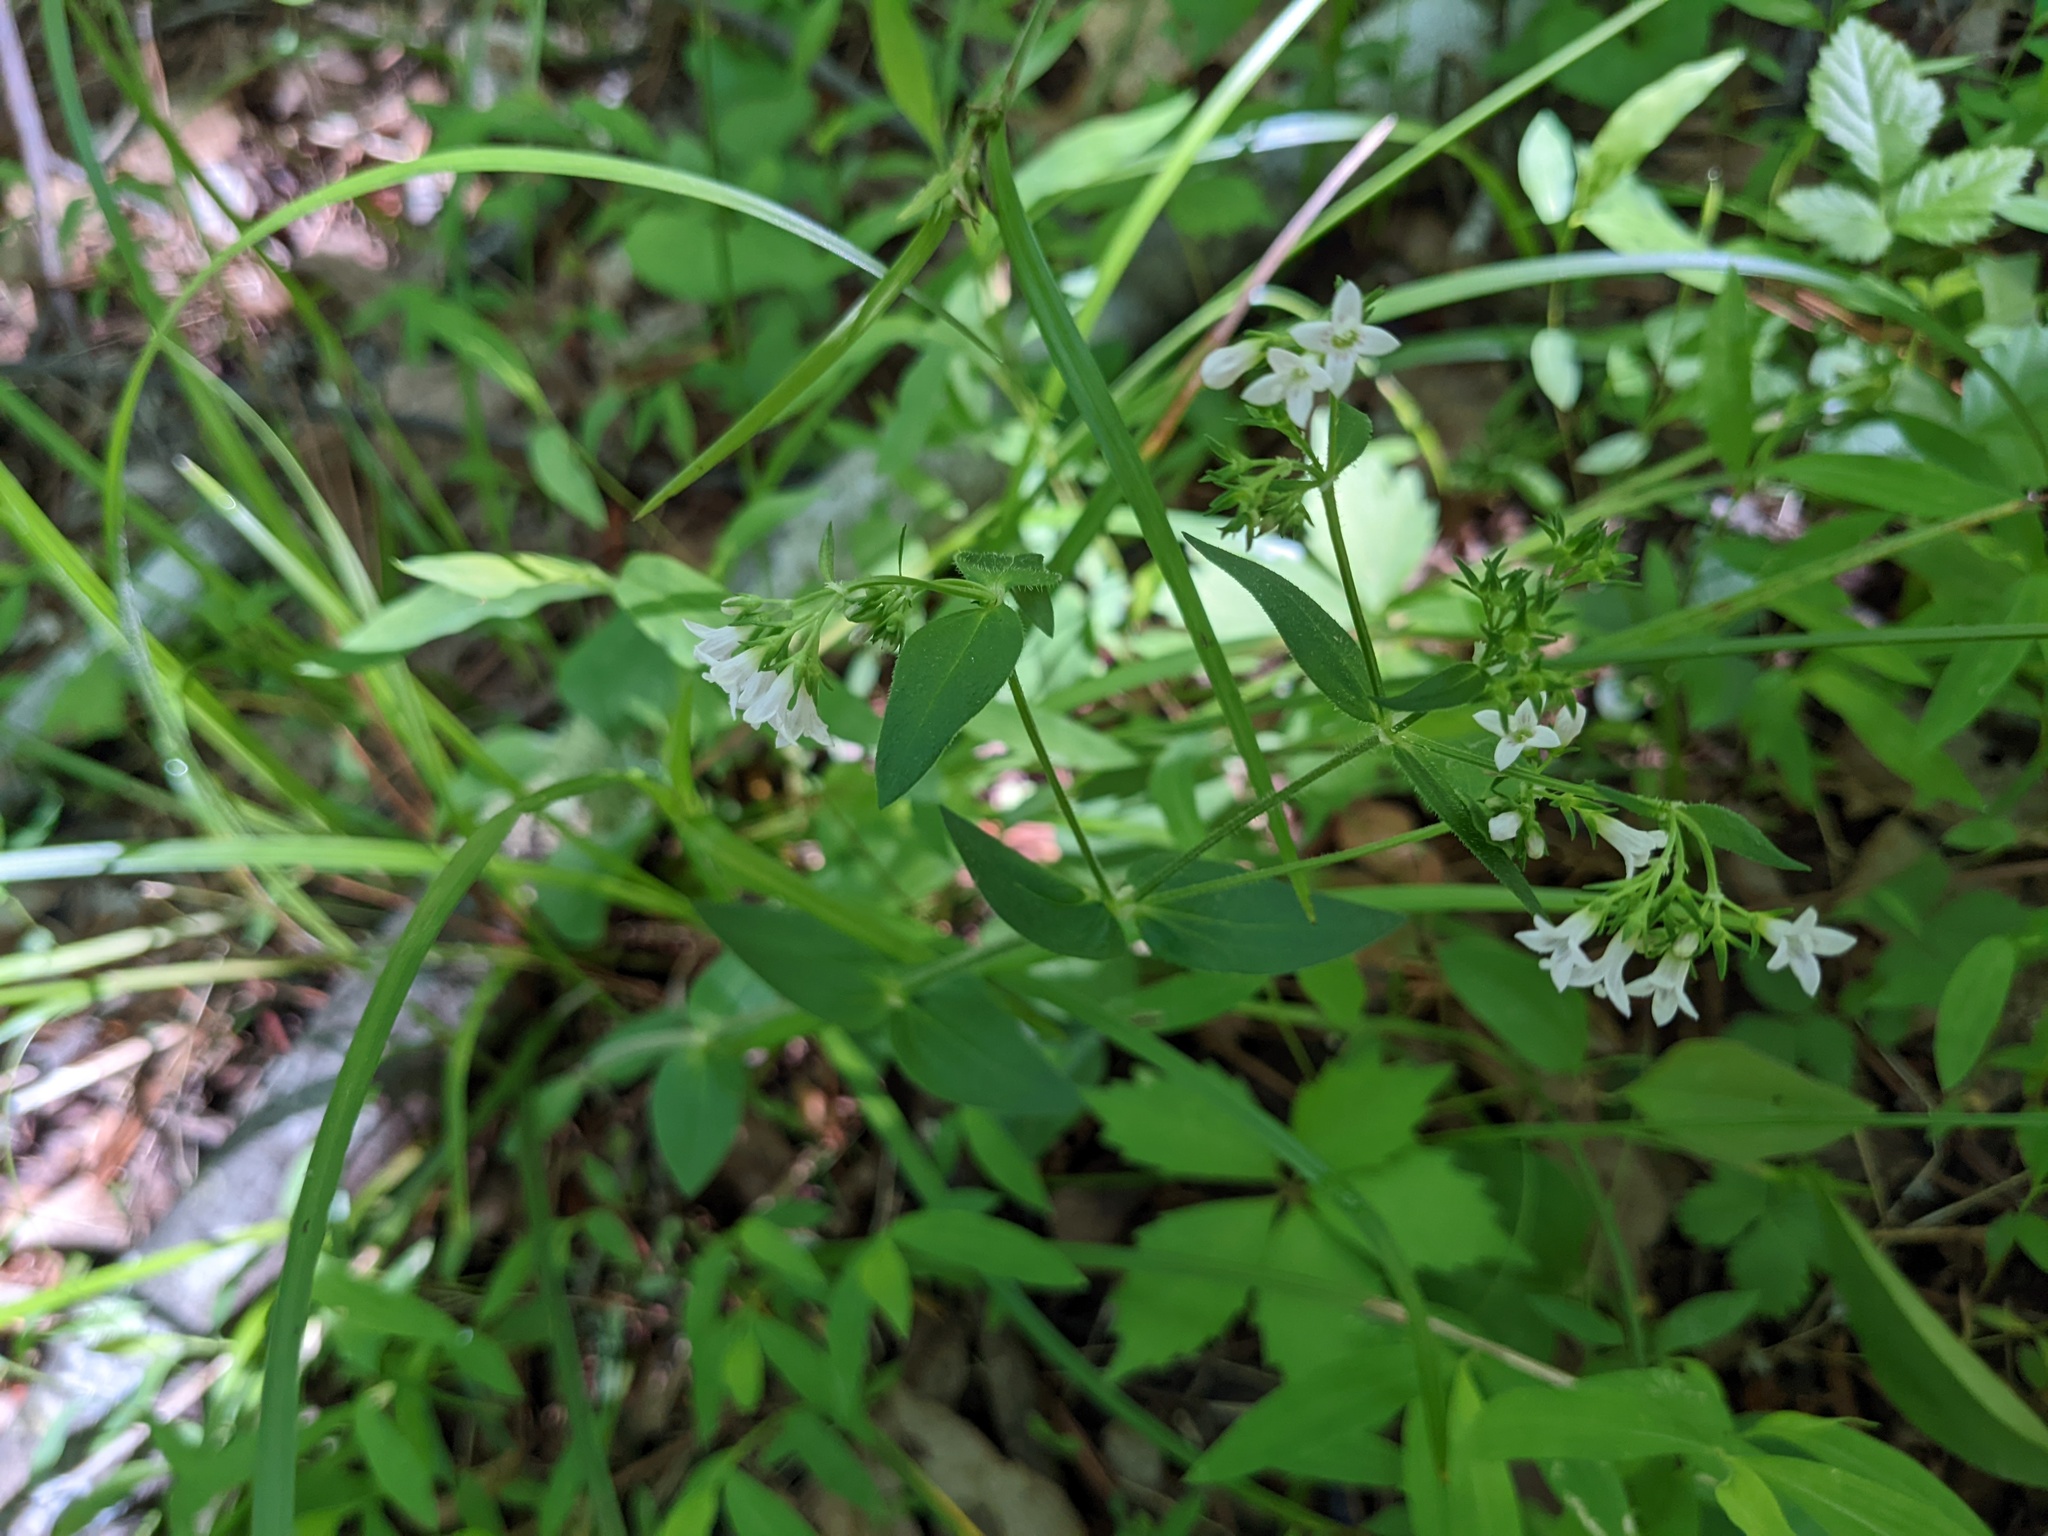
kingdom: Plantae
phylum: Tracheophyta
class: Magnoliopsida
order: Gentianales
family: Rubiaceae
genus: Houstonia
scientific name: Houstonia purpurea
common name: Summer bluet
